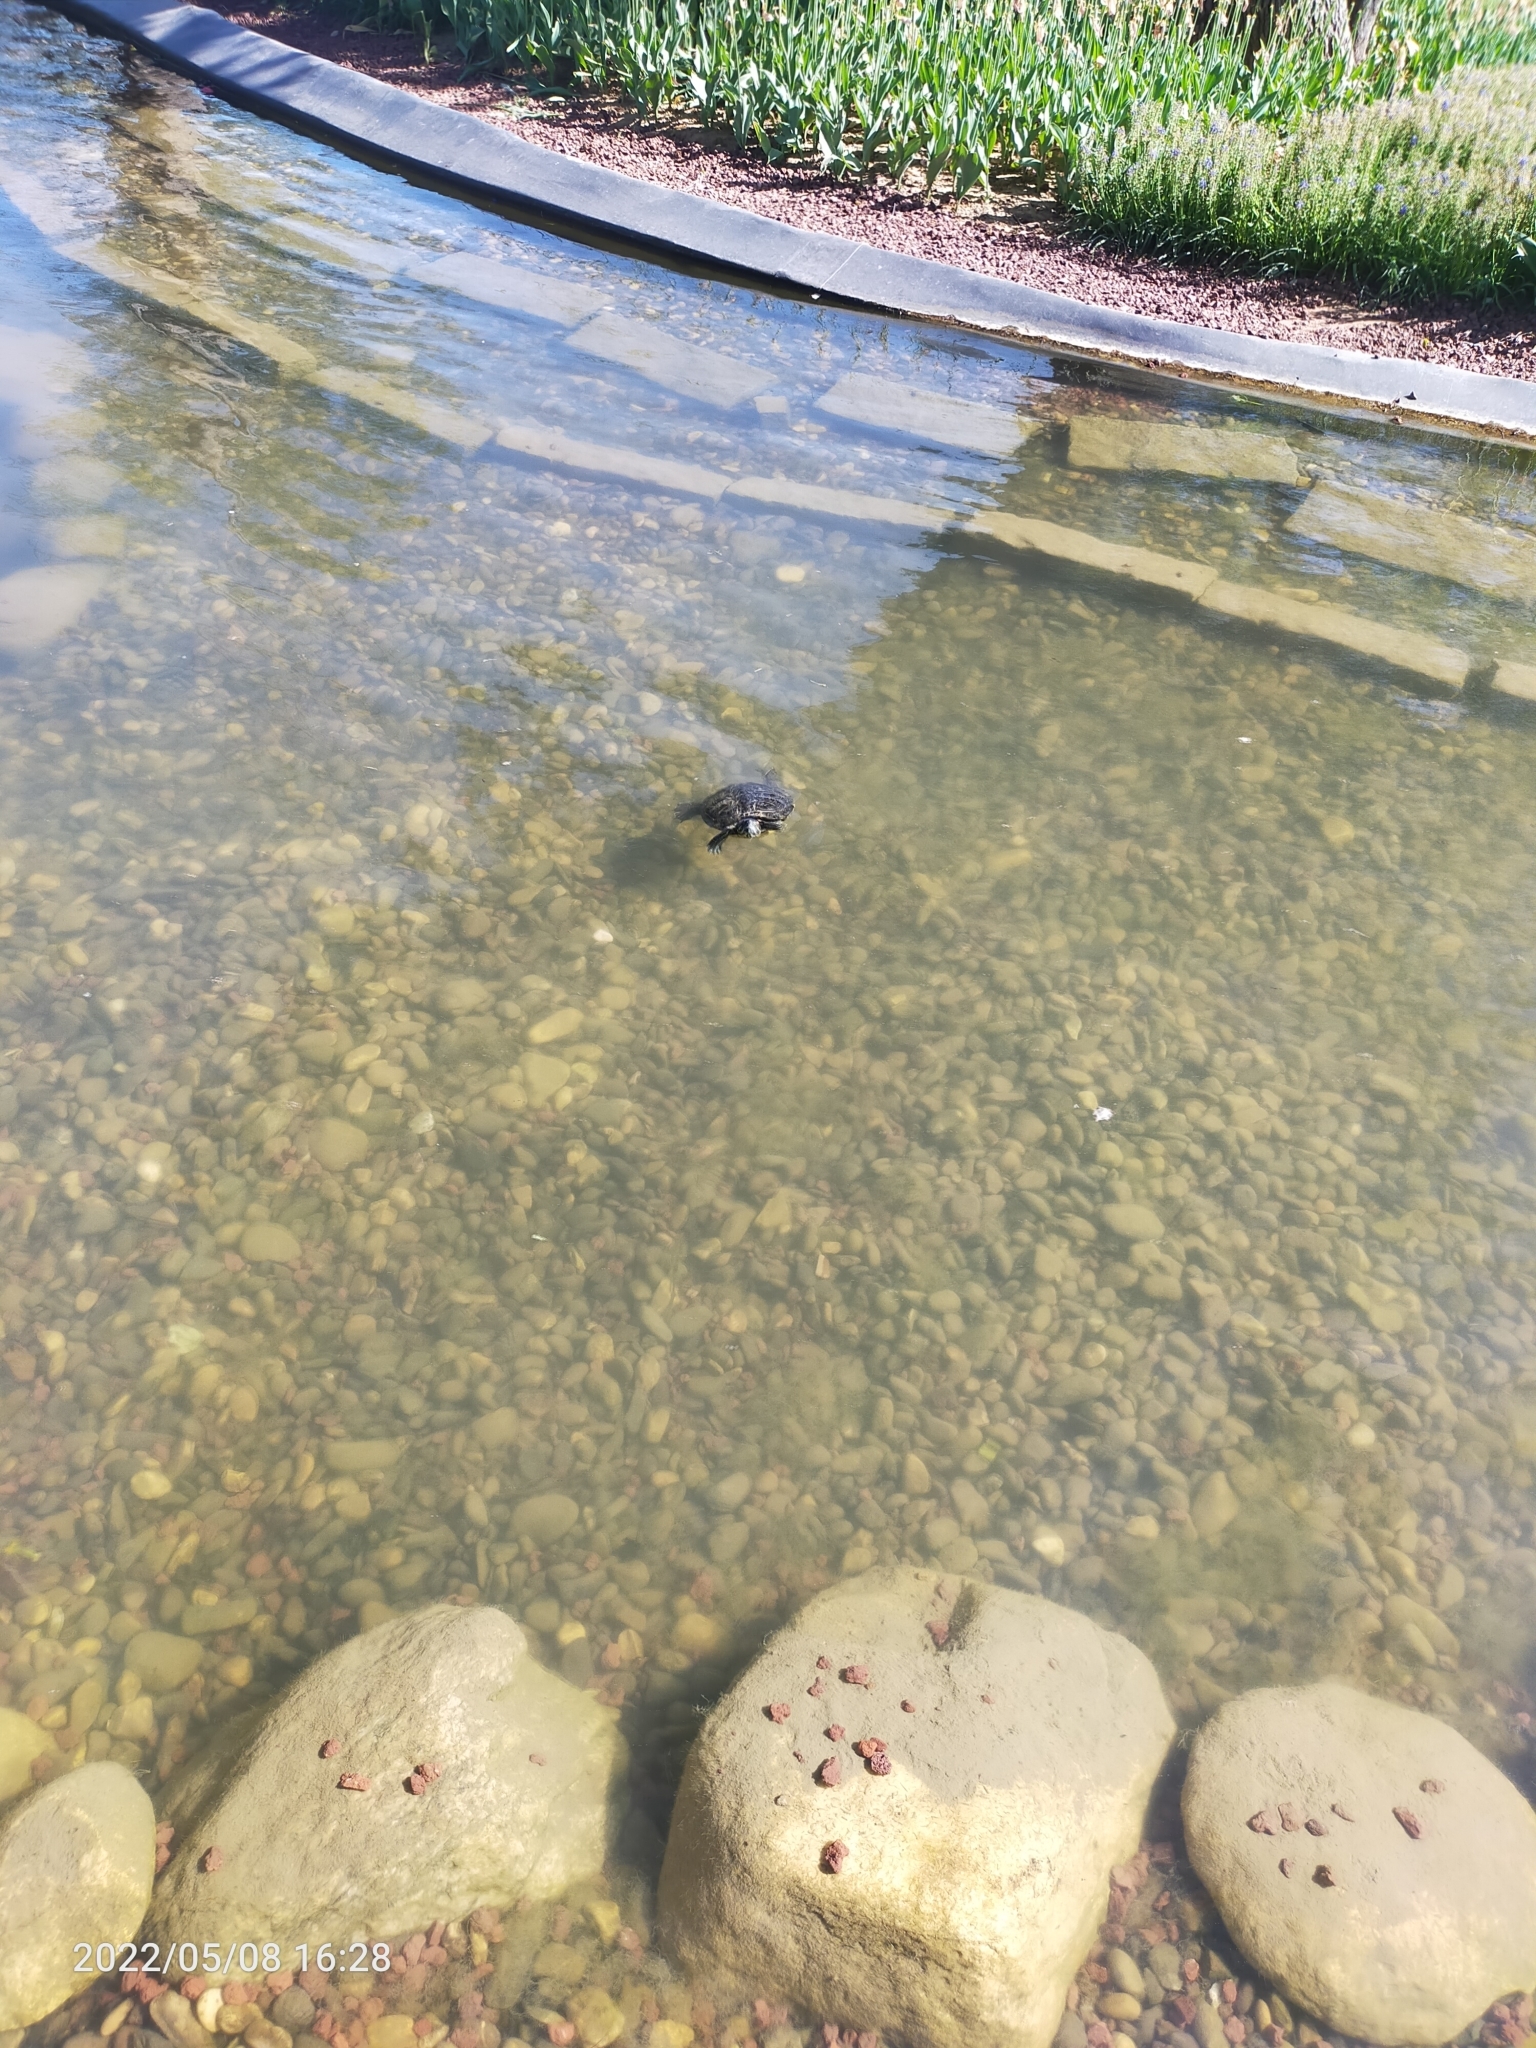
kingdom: Animalia
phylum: Chordata
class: Testudines
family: Emydidae
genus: Trachemys
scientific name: Trachemys scripta
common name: Slider
